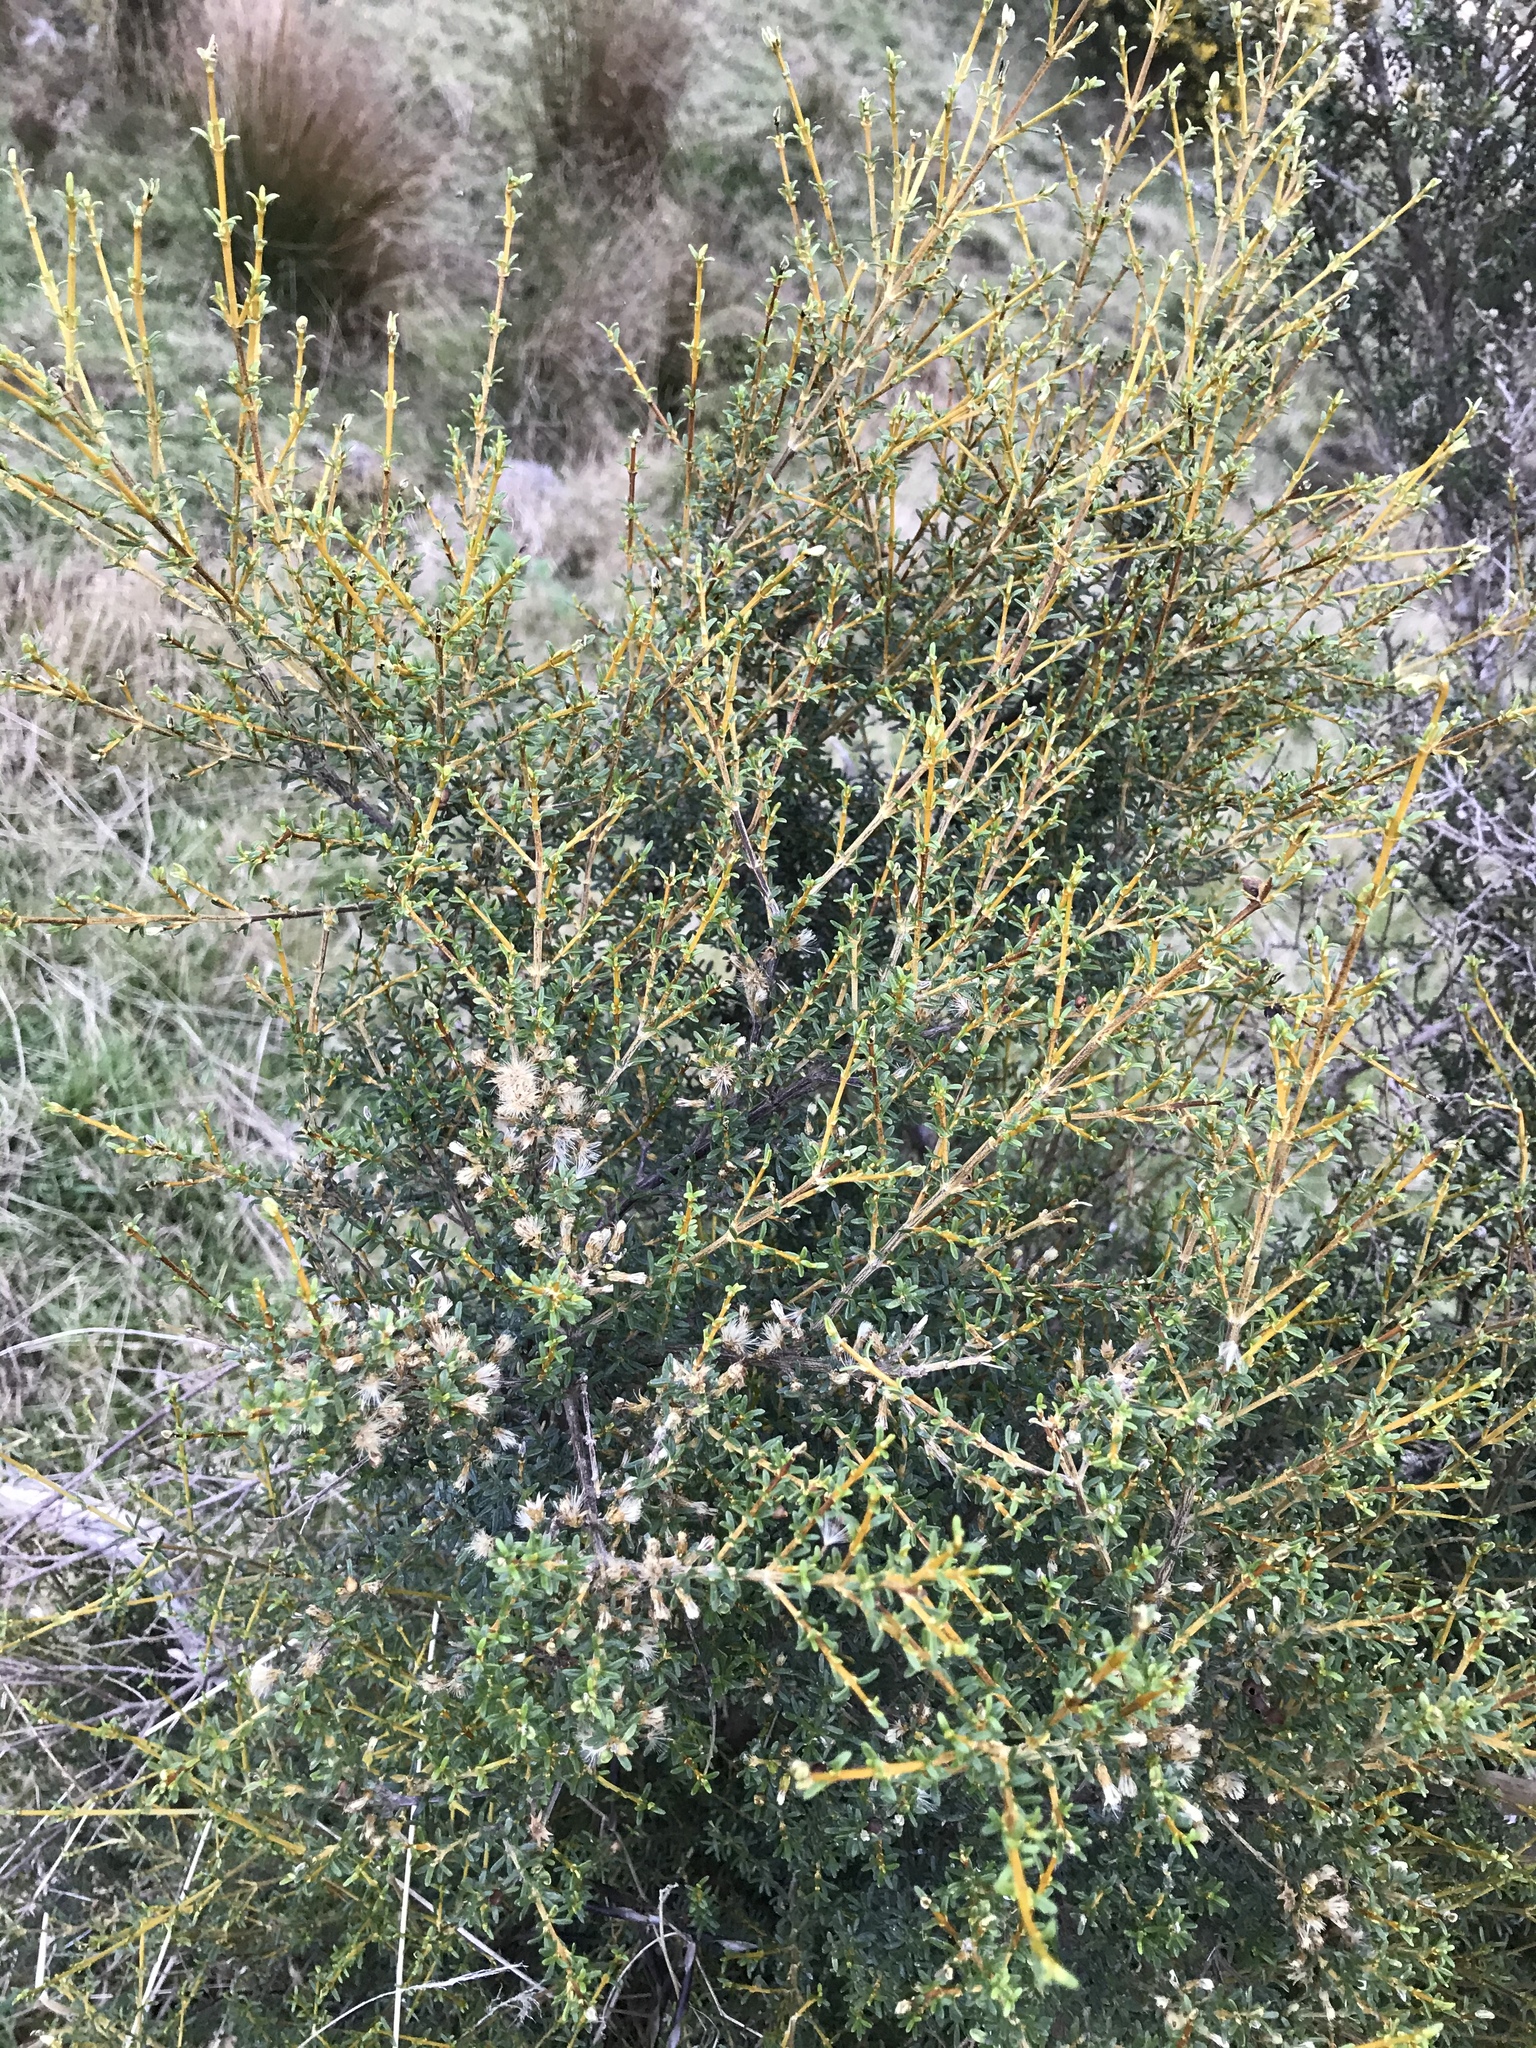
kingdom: Plantae
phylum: Tracheophyta
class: Magnoliopsida
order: Asterales
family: Asteraceae
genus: Olearia
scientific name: Olearia solandri
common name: Coastal daisybush
